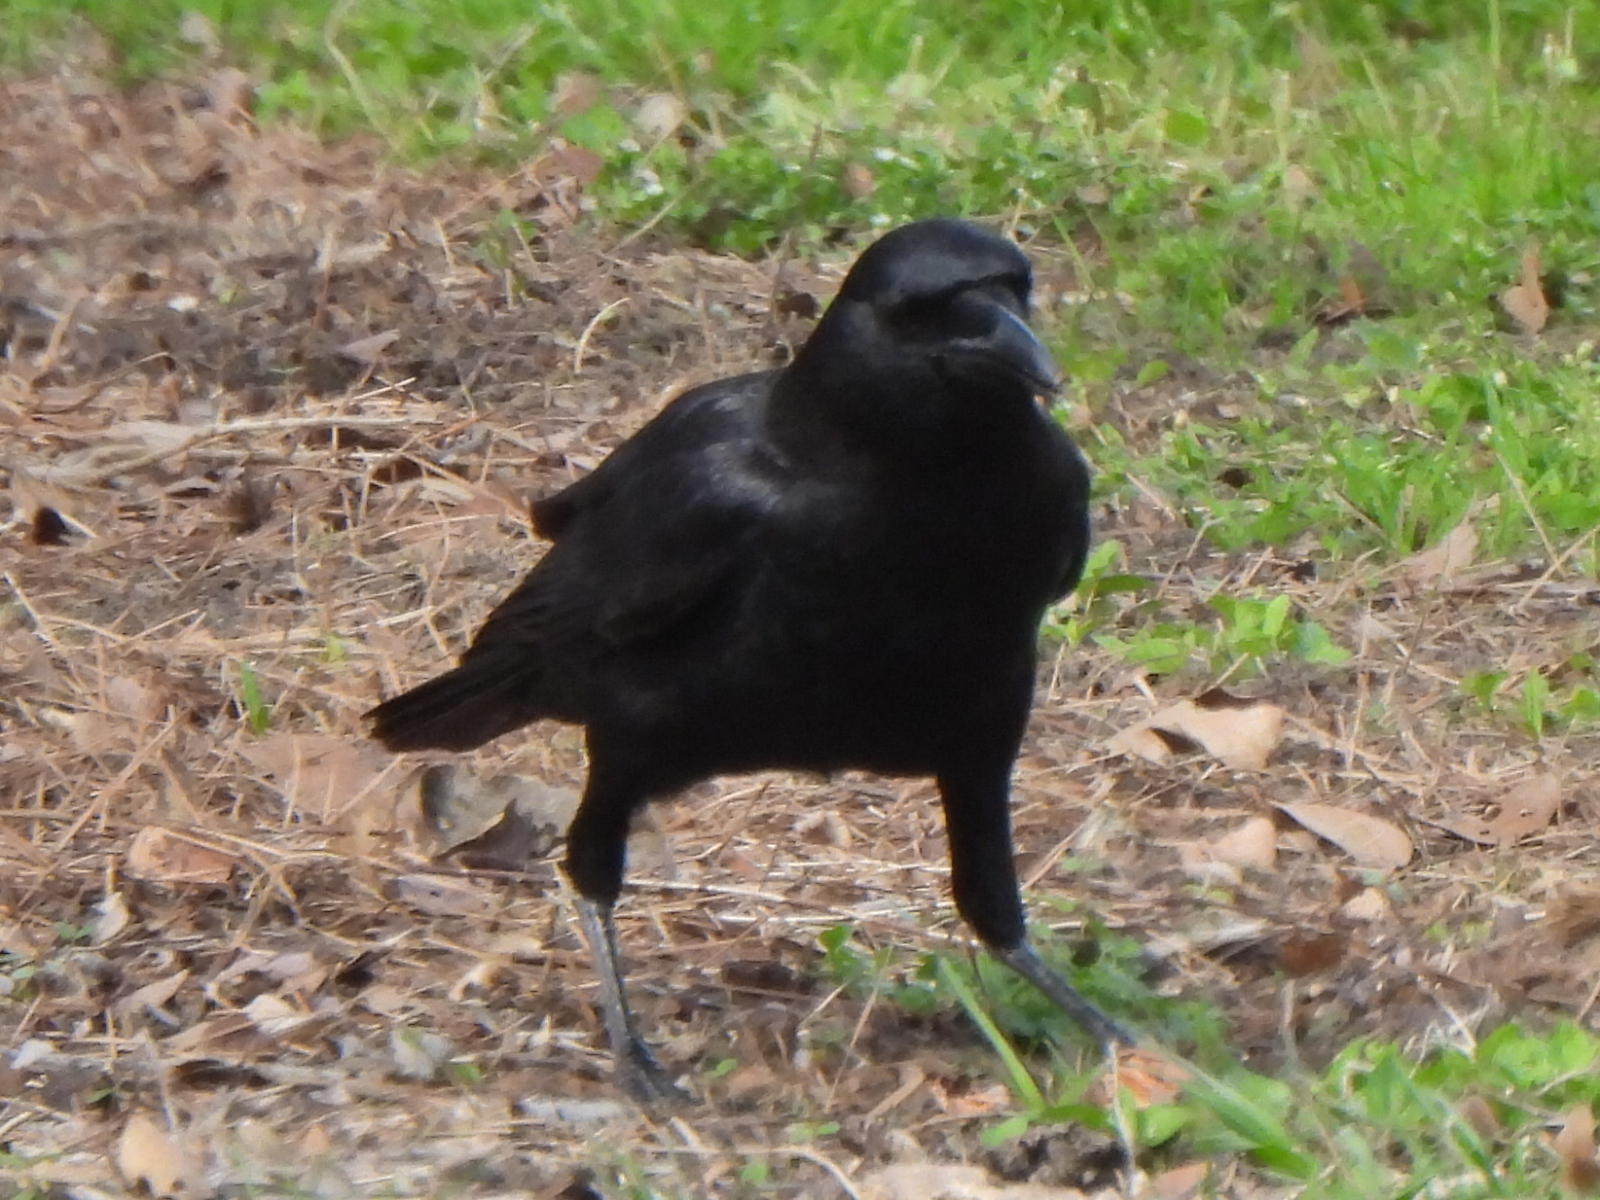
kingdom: Animalia
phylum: Chordata
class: Aves
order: Passeriformes
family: Corvidae
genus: Corvus
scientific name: Corvus brachyrhynchos
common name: American crow
